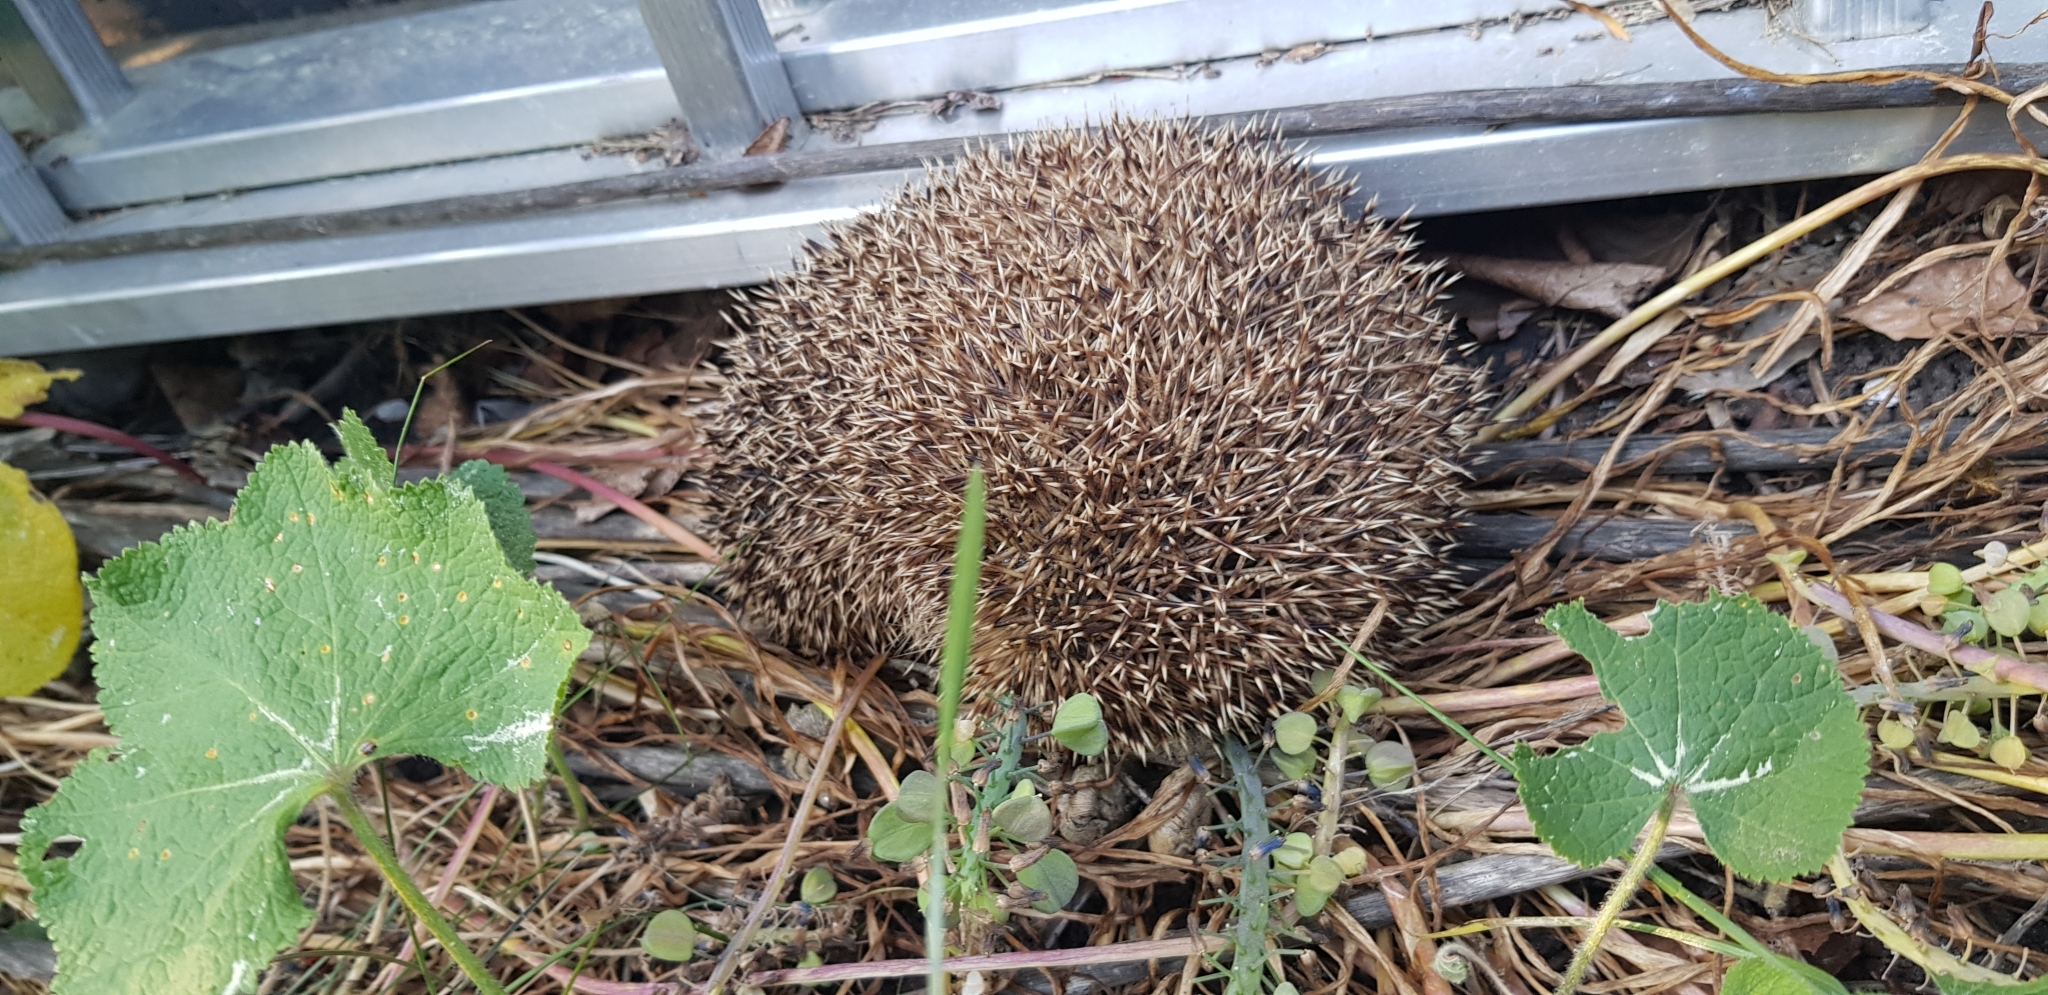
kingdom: Animalia
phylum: Chordata
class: Mammalia
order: Erinaceomorpha
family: Erinaceidae
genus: Erinaceus
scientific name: Erinaceus europaeus
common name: West european hedgehog
